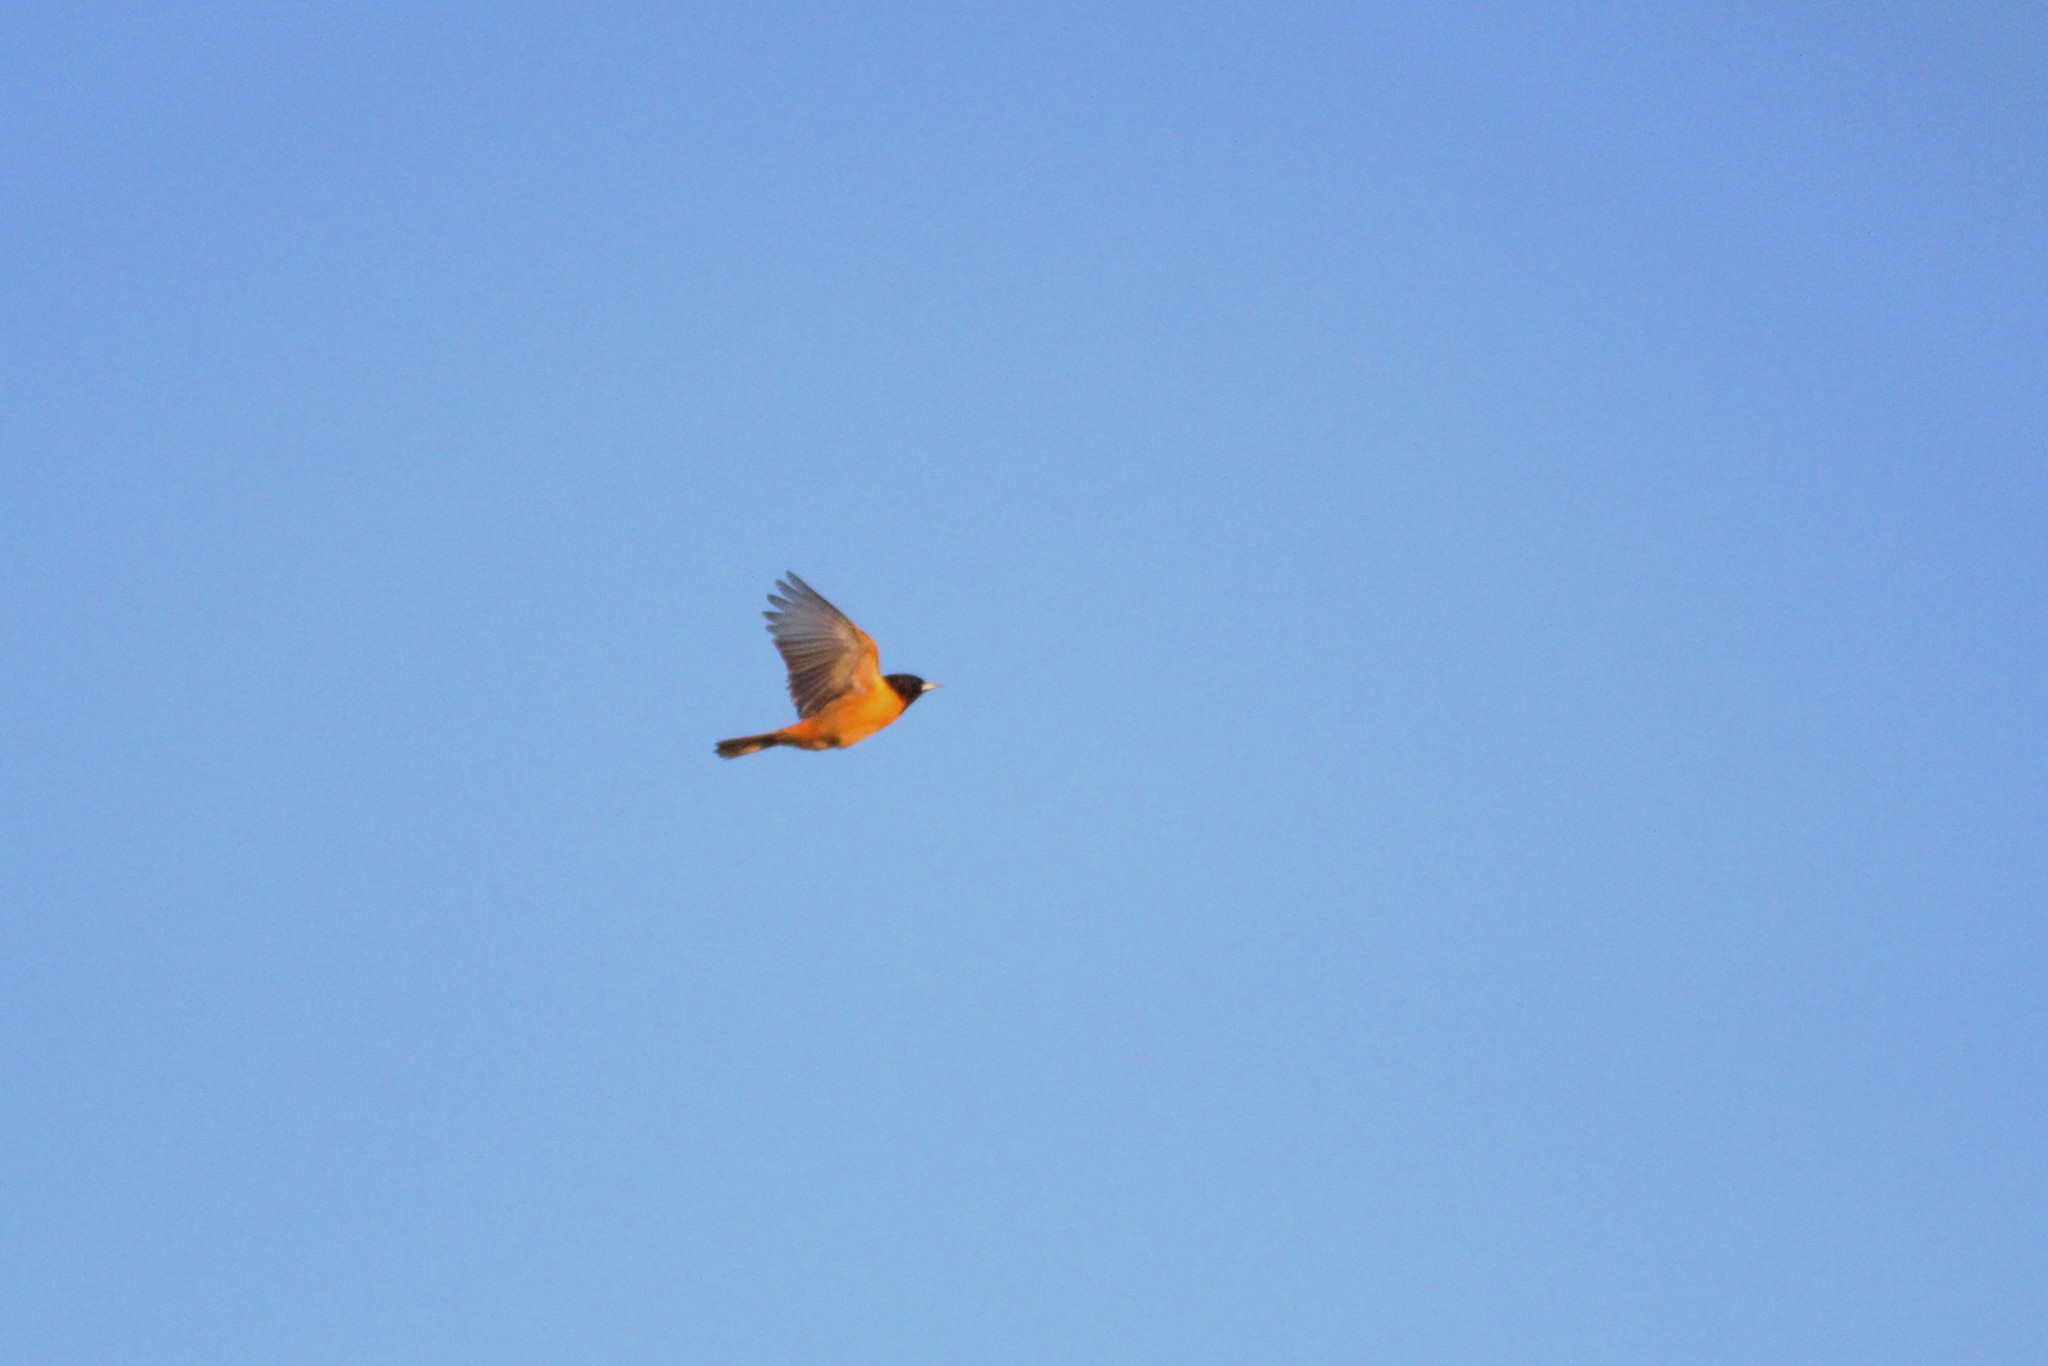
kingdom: Animalia
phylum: Chordata
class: Aves
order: Passeriformes
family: Icteridae
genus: Icterus
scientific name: Icterus galbula
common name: Baltimore oriole
